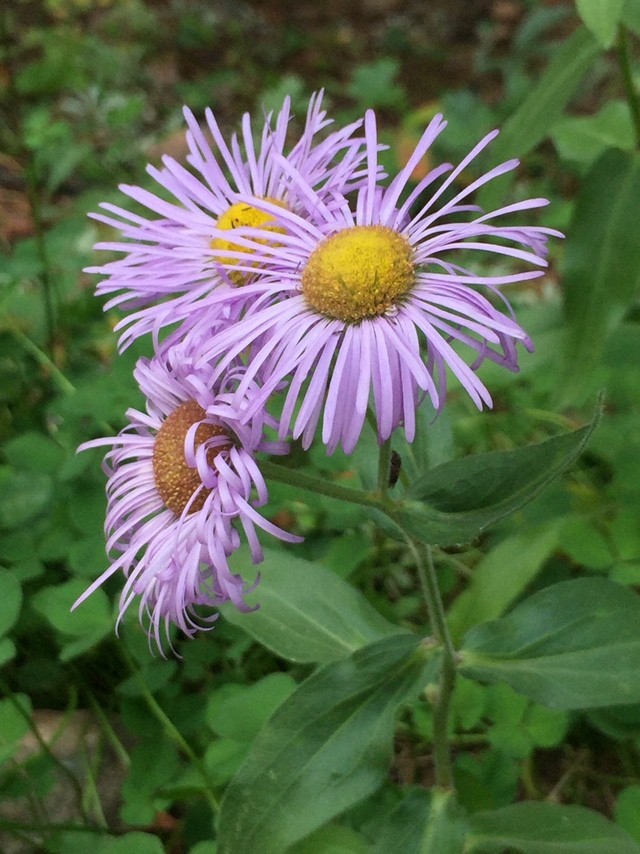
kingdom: Plantae
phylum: Tracheophyta
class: Magnoliopsida
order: Asterales
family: Asteraceae
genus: Erigeron
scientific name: Erigeron speciosus
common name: Aspen fleabane
